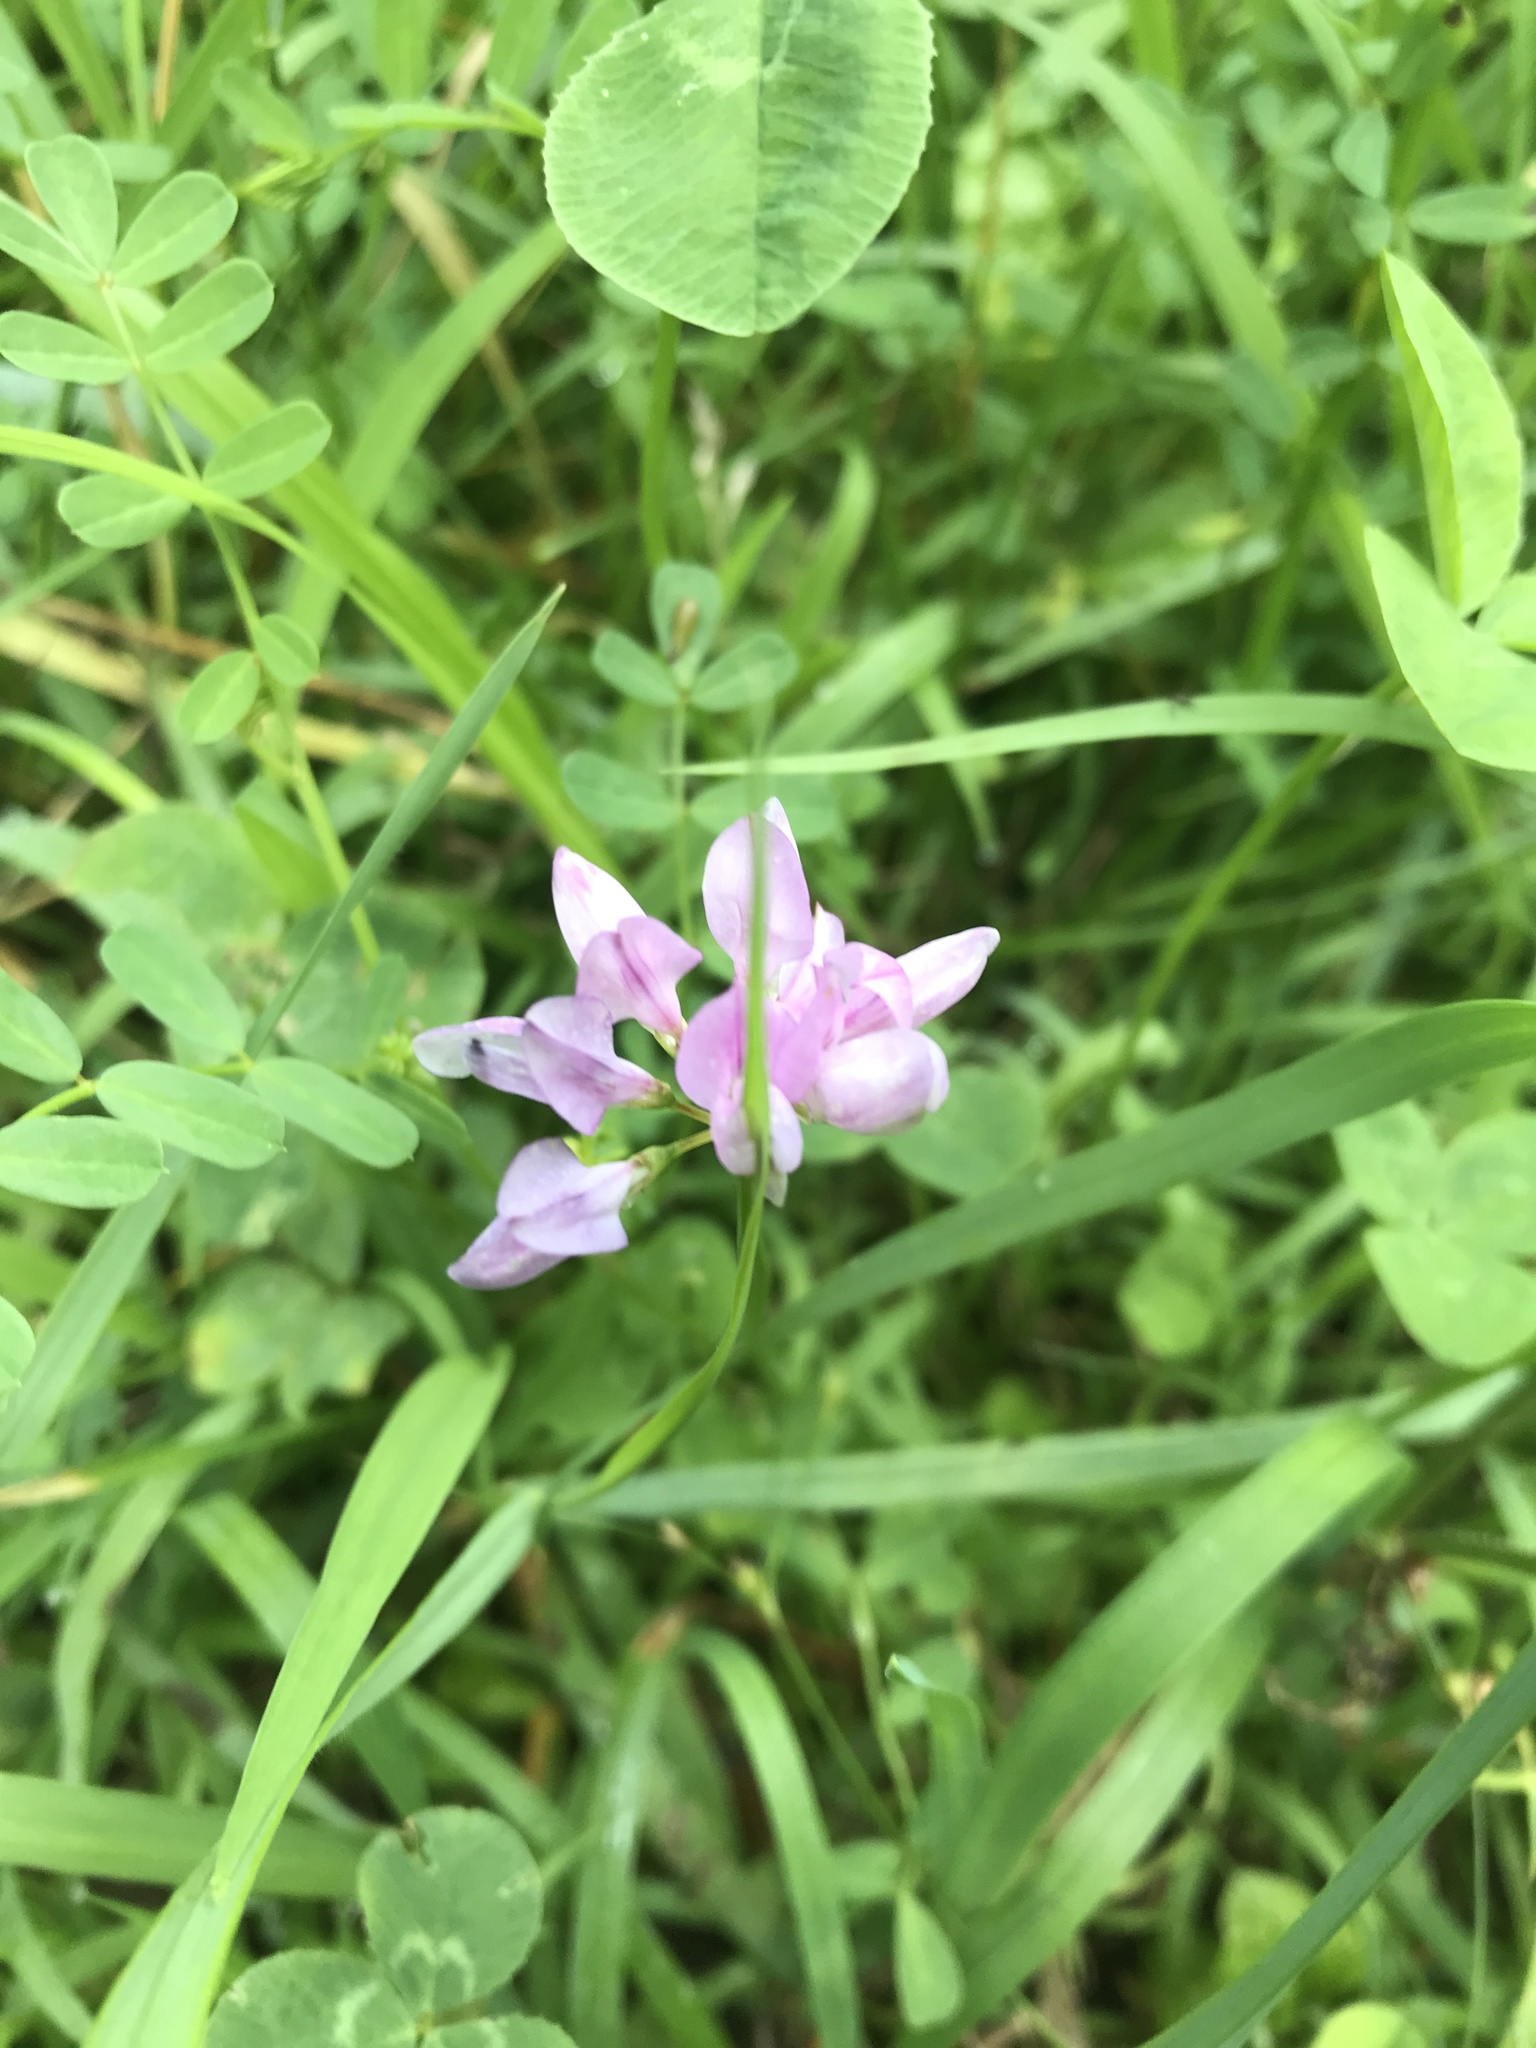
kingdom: Plantae
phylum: Tracheophyta
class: Magnoliopsida
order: Fabales
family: Fabaceae
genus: Coronilla
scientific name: Coronilla varia
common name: Crownvetch
